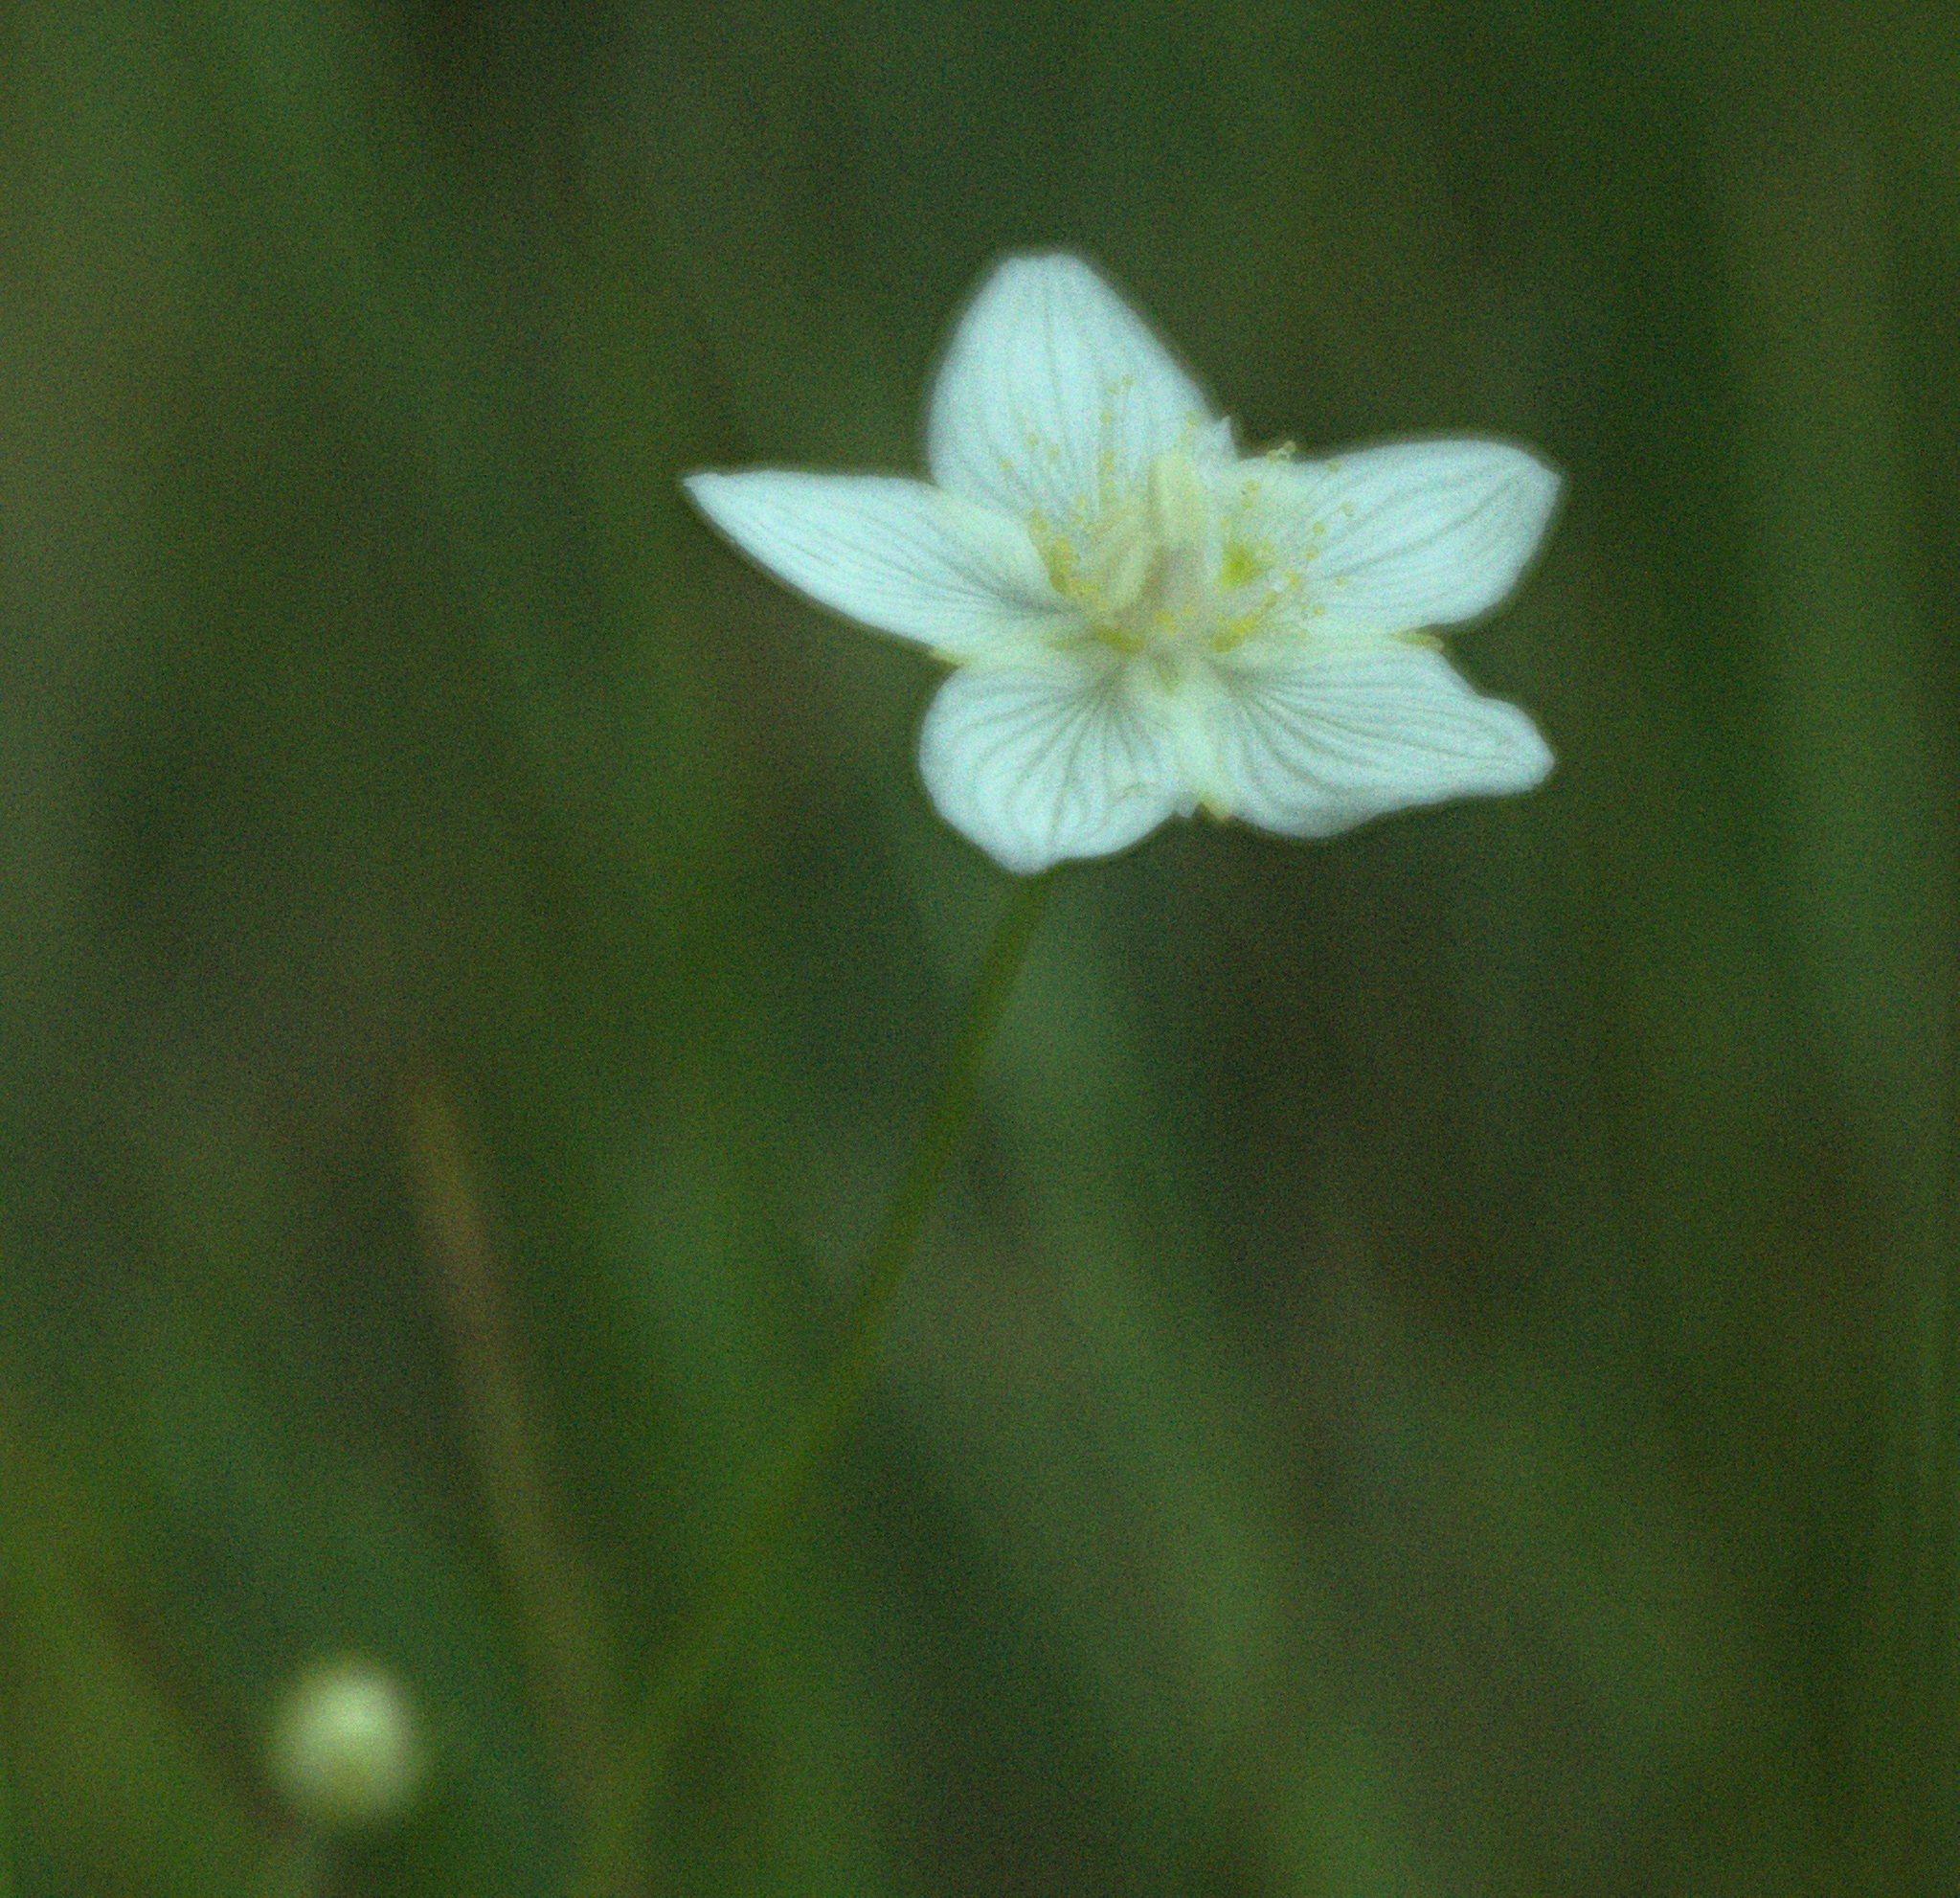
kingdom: Plantae
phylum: Tracheophyta
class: Magnoliopsida
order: Celastrales
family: Parnassiaceae
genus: Parnassia
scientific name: Parnassia palustris
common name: Grass-of-parnassus
